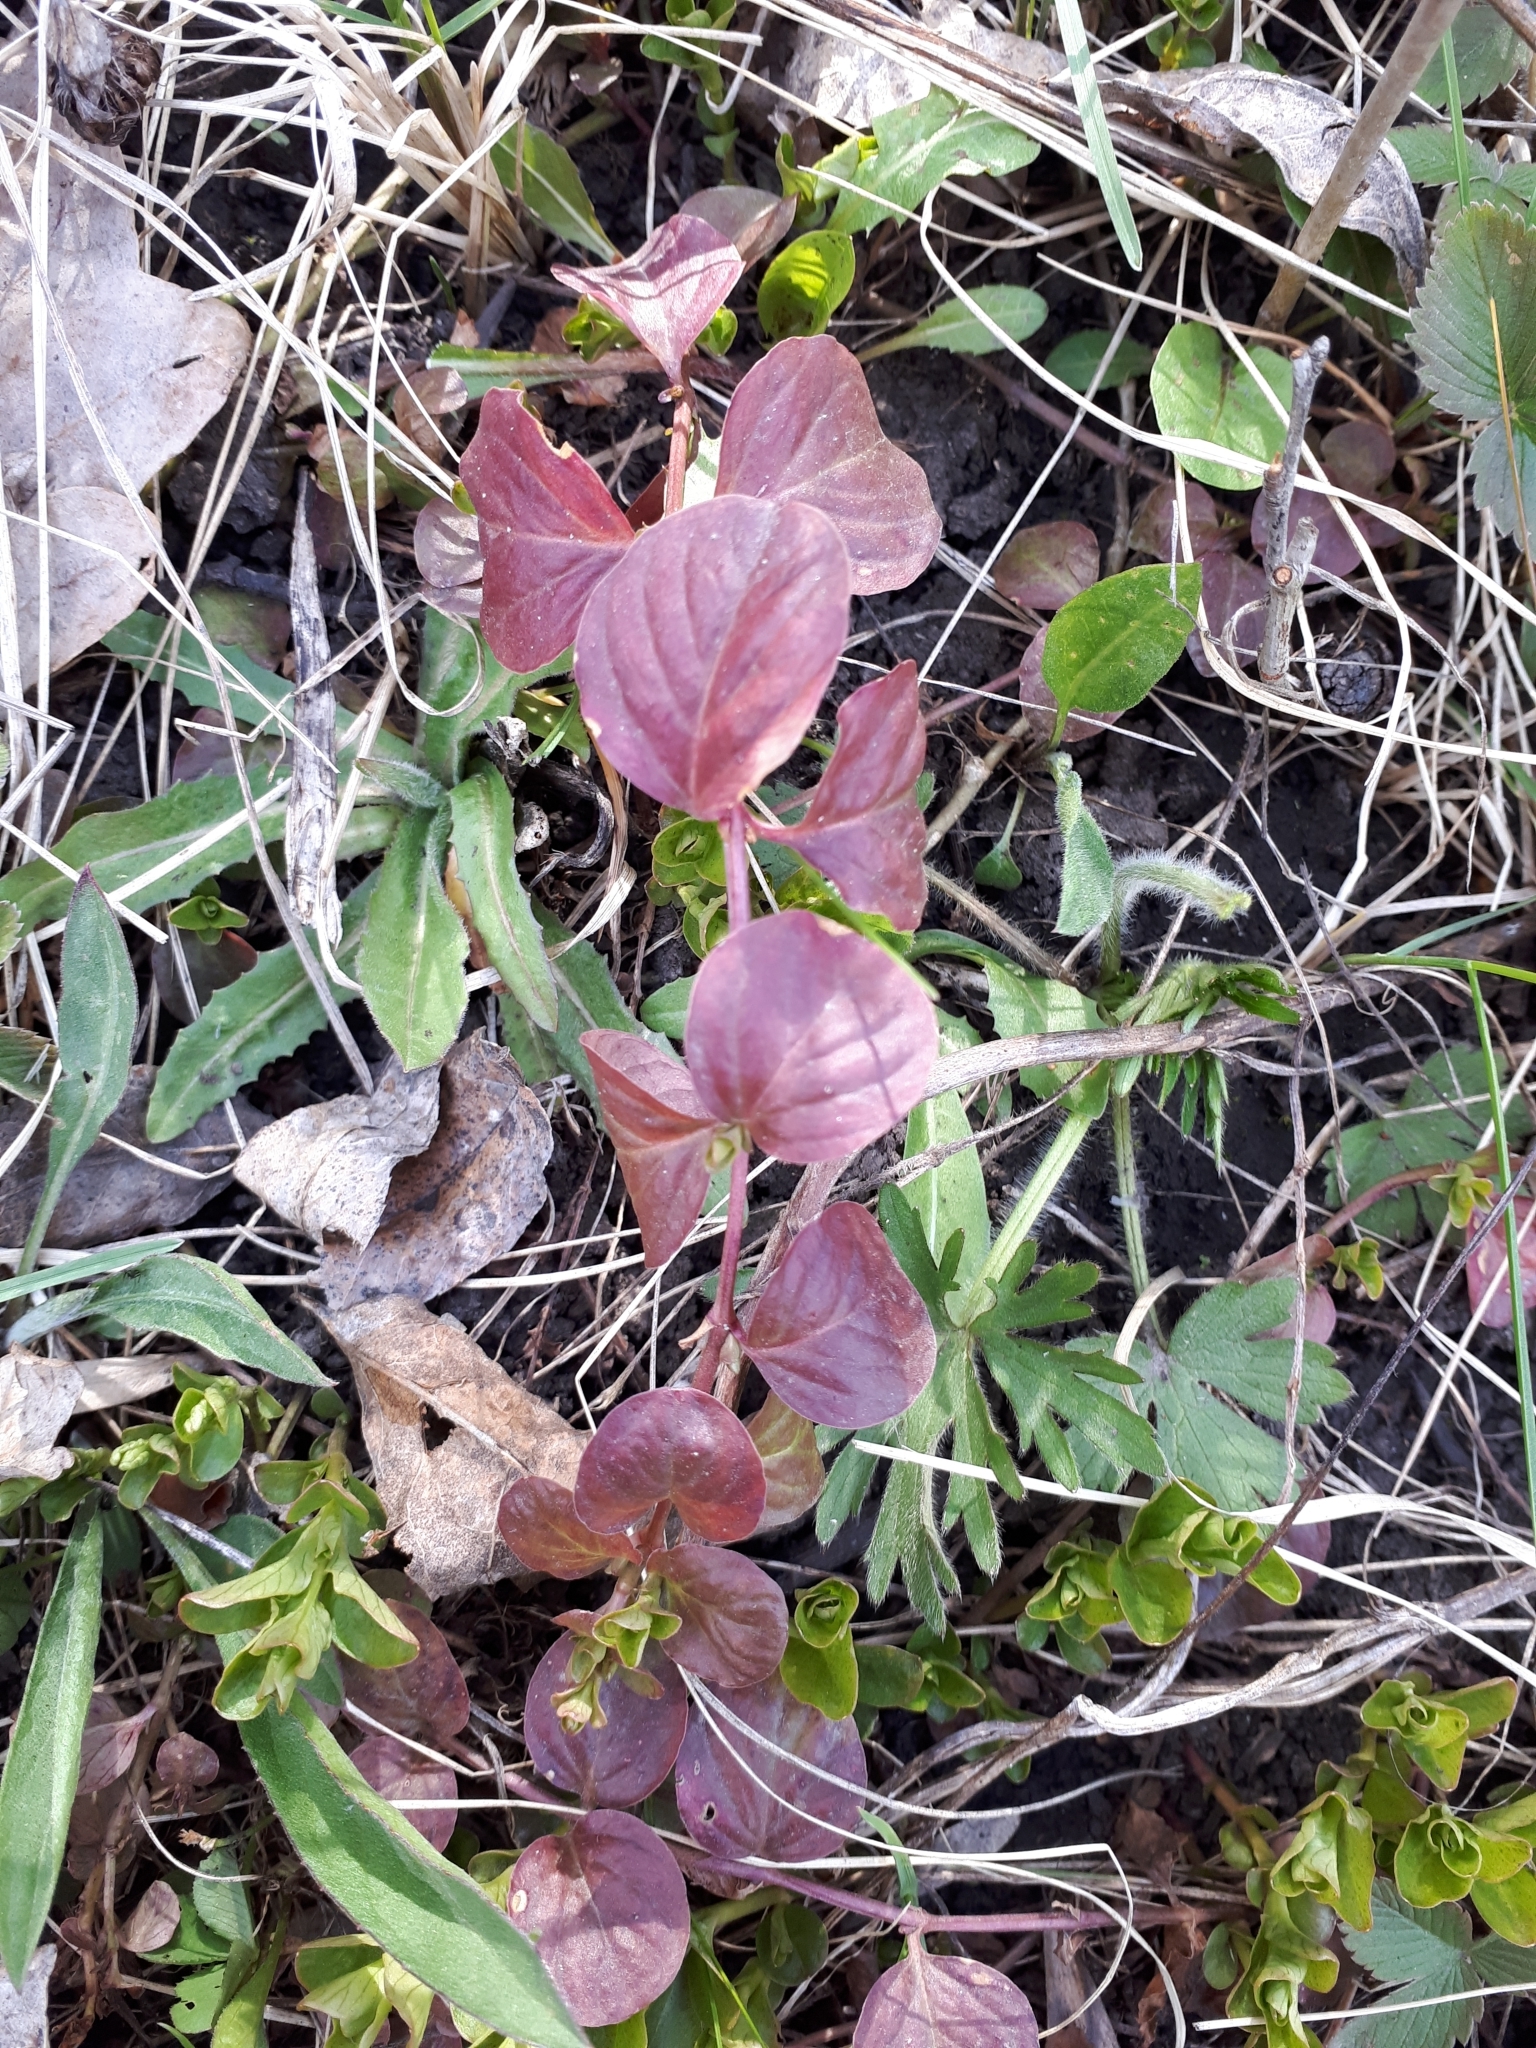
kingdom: Plantae
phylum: Tracheophyta
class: Magnoliopsida
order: Ericales
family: Primulaceae
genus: Lysimachia
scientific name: Lysimachia nummularia
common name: Moneywort
